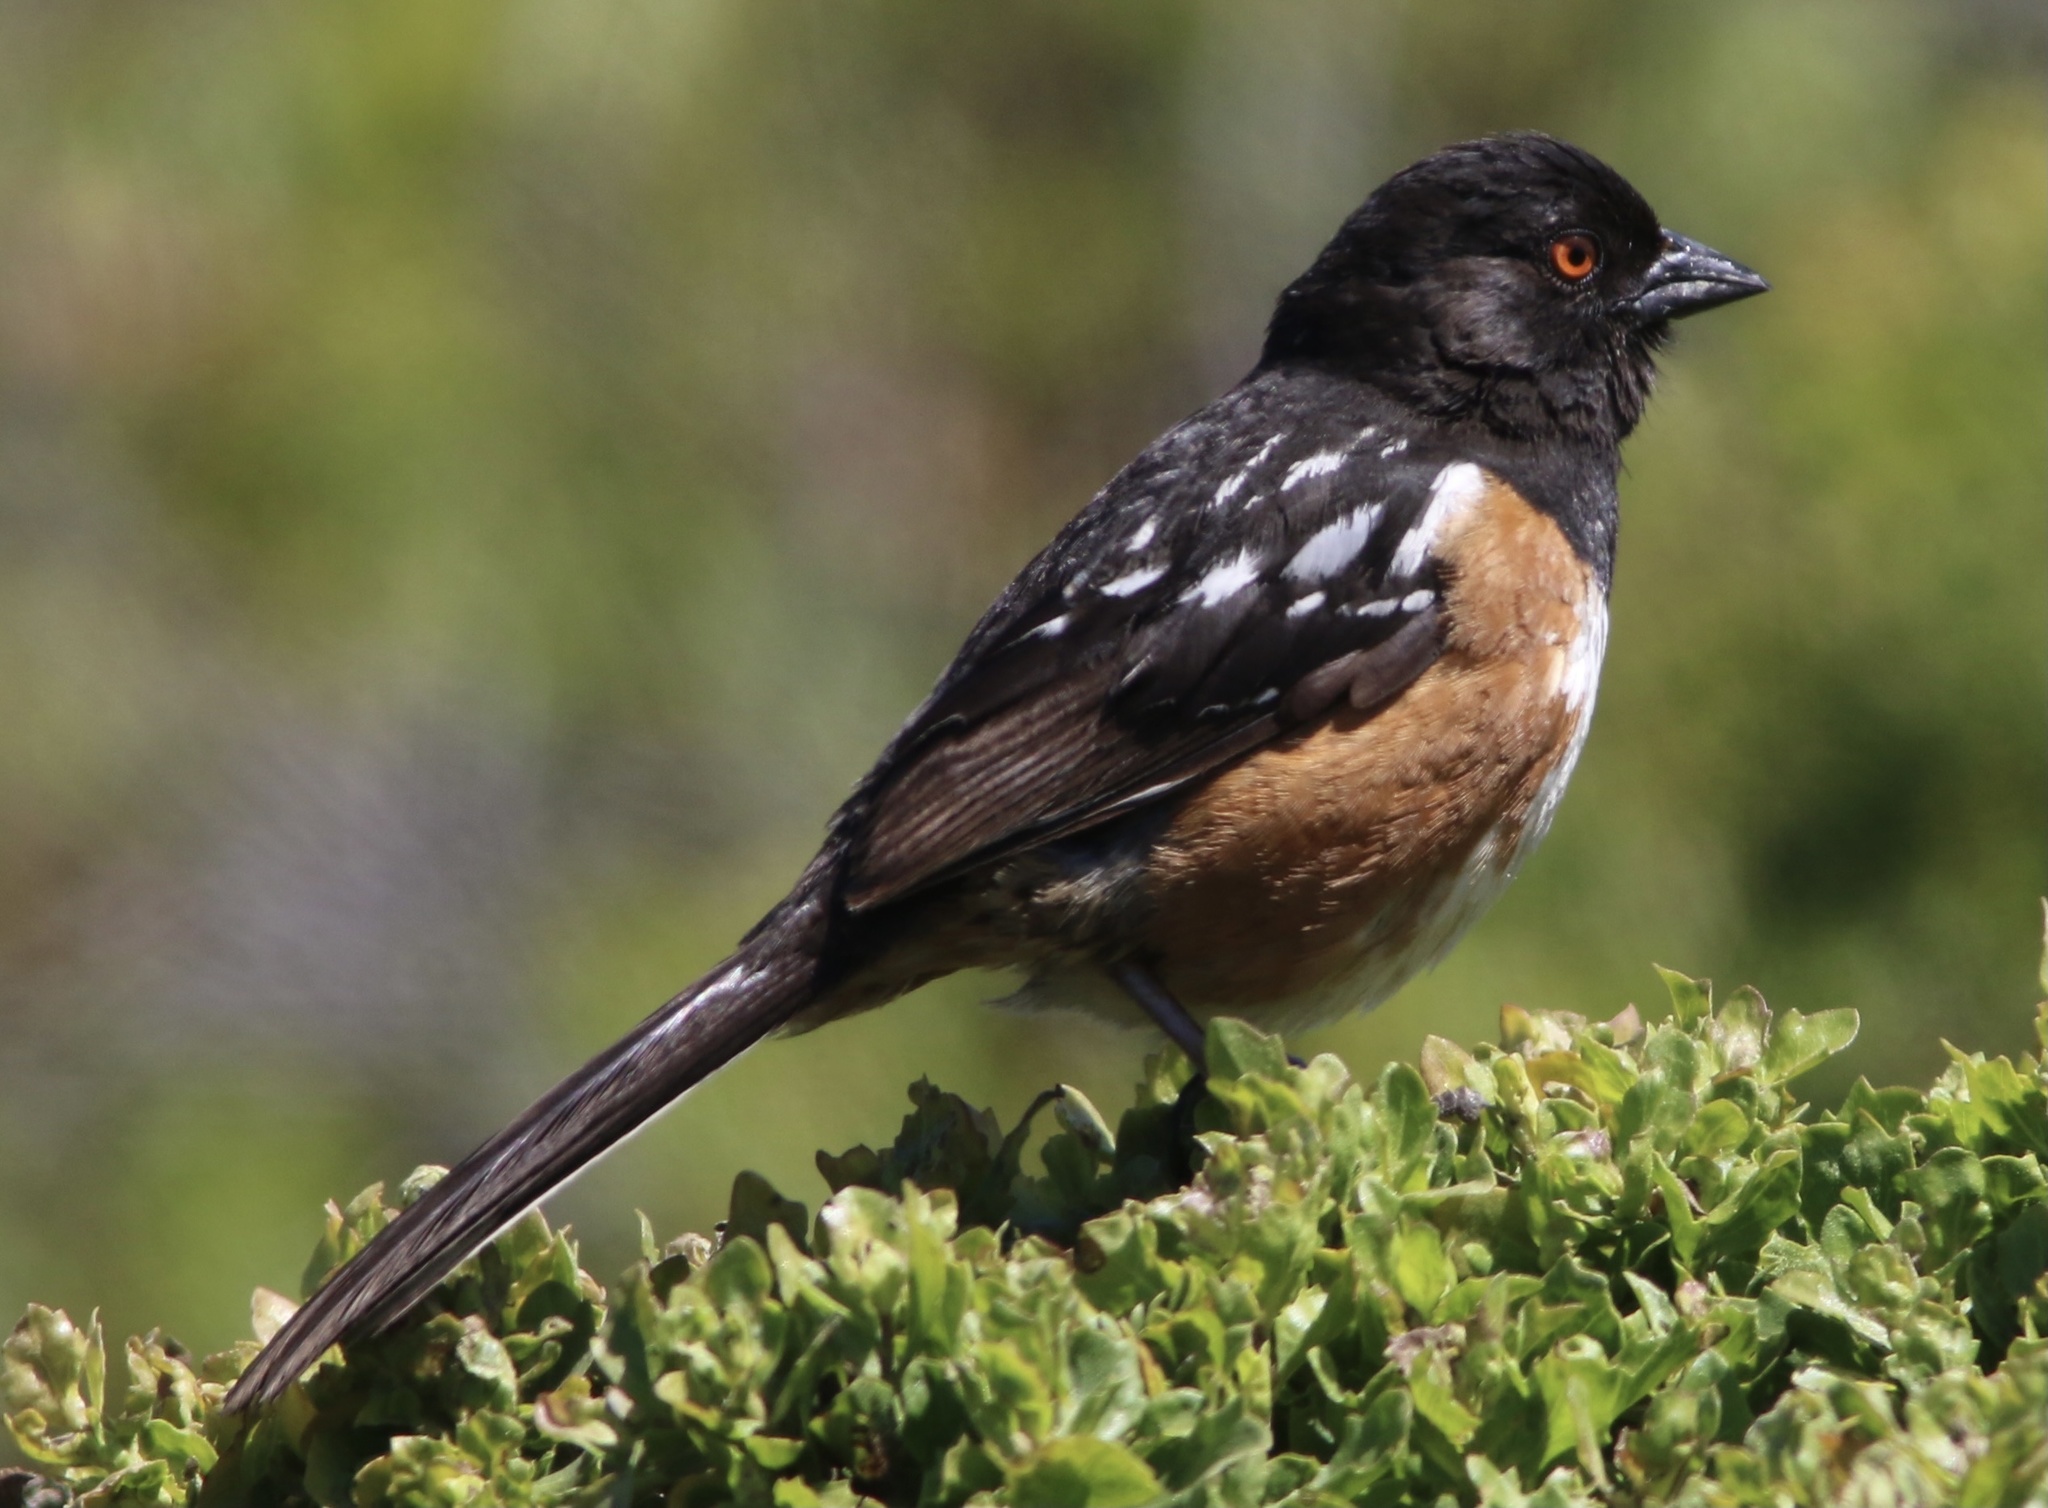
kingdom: Animalia
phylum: Chordata
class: Aves
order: Passeriformes
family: Passerellidae
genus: Pipilo
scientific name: Pipilo maculatus
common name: Spotted towhee
